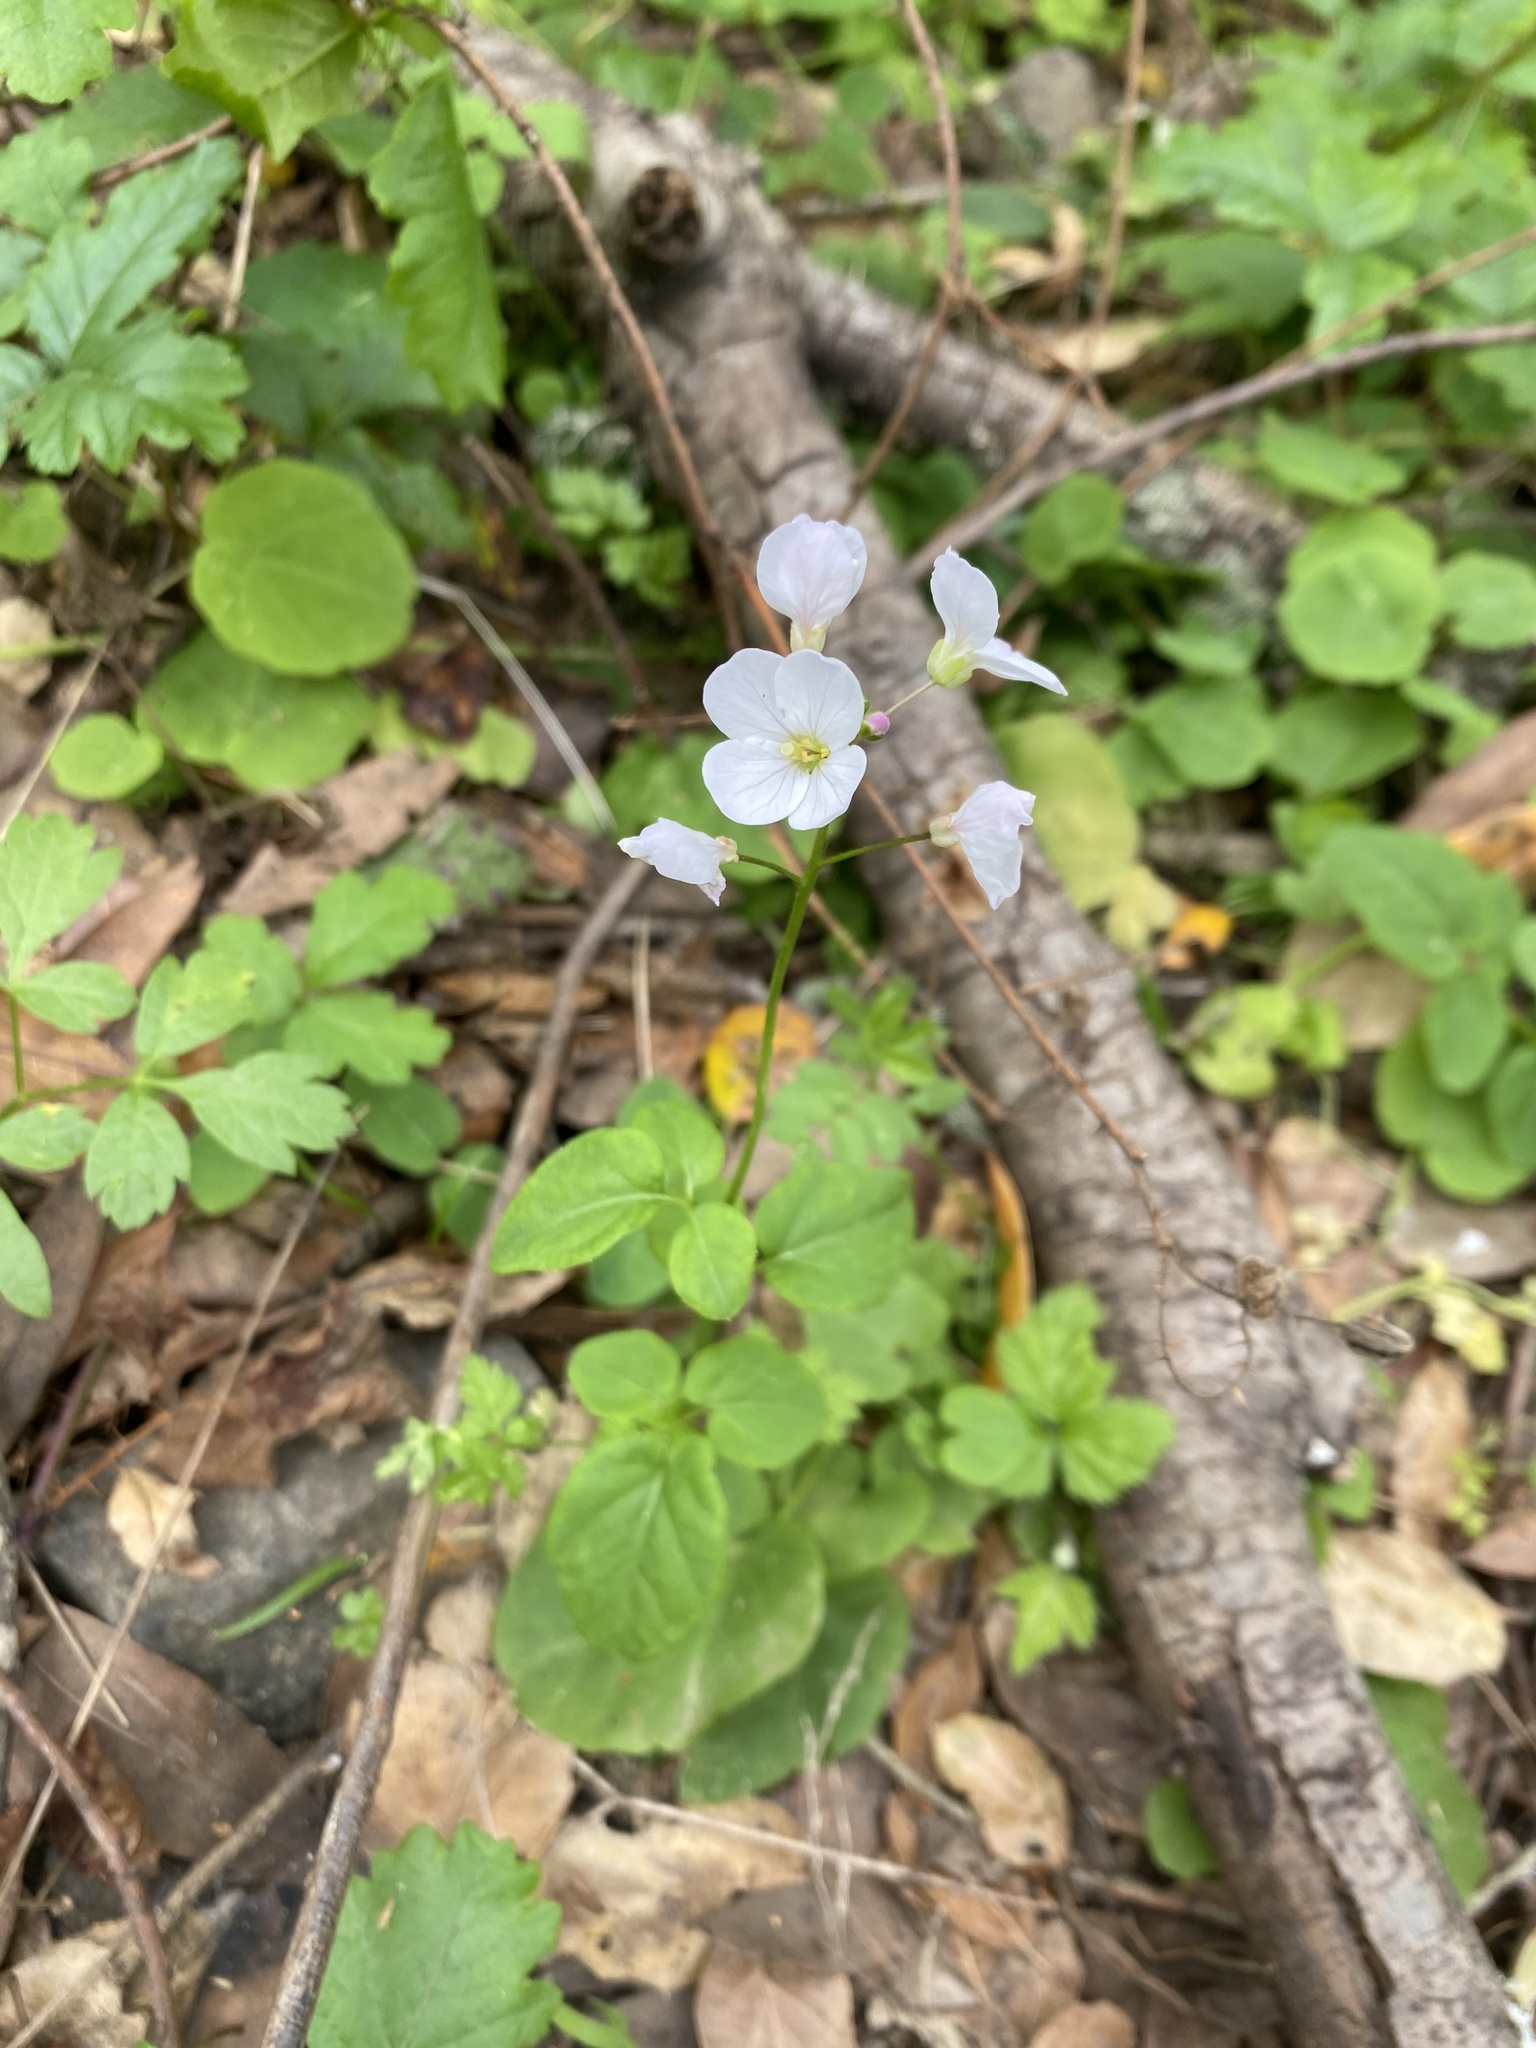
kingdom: Plantae
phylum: Tracheophyta
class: Magnoliopsida
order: Brassicales
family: Brassicaceae
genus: Cardamine
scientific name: Cardamine californica
